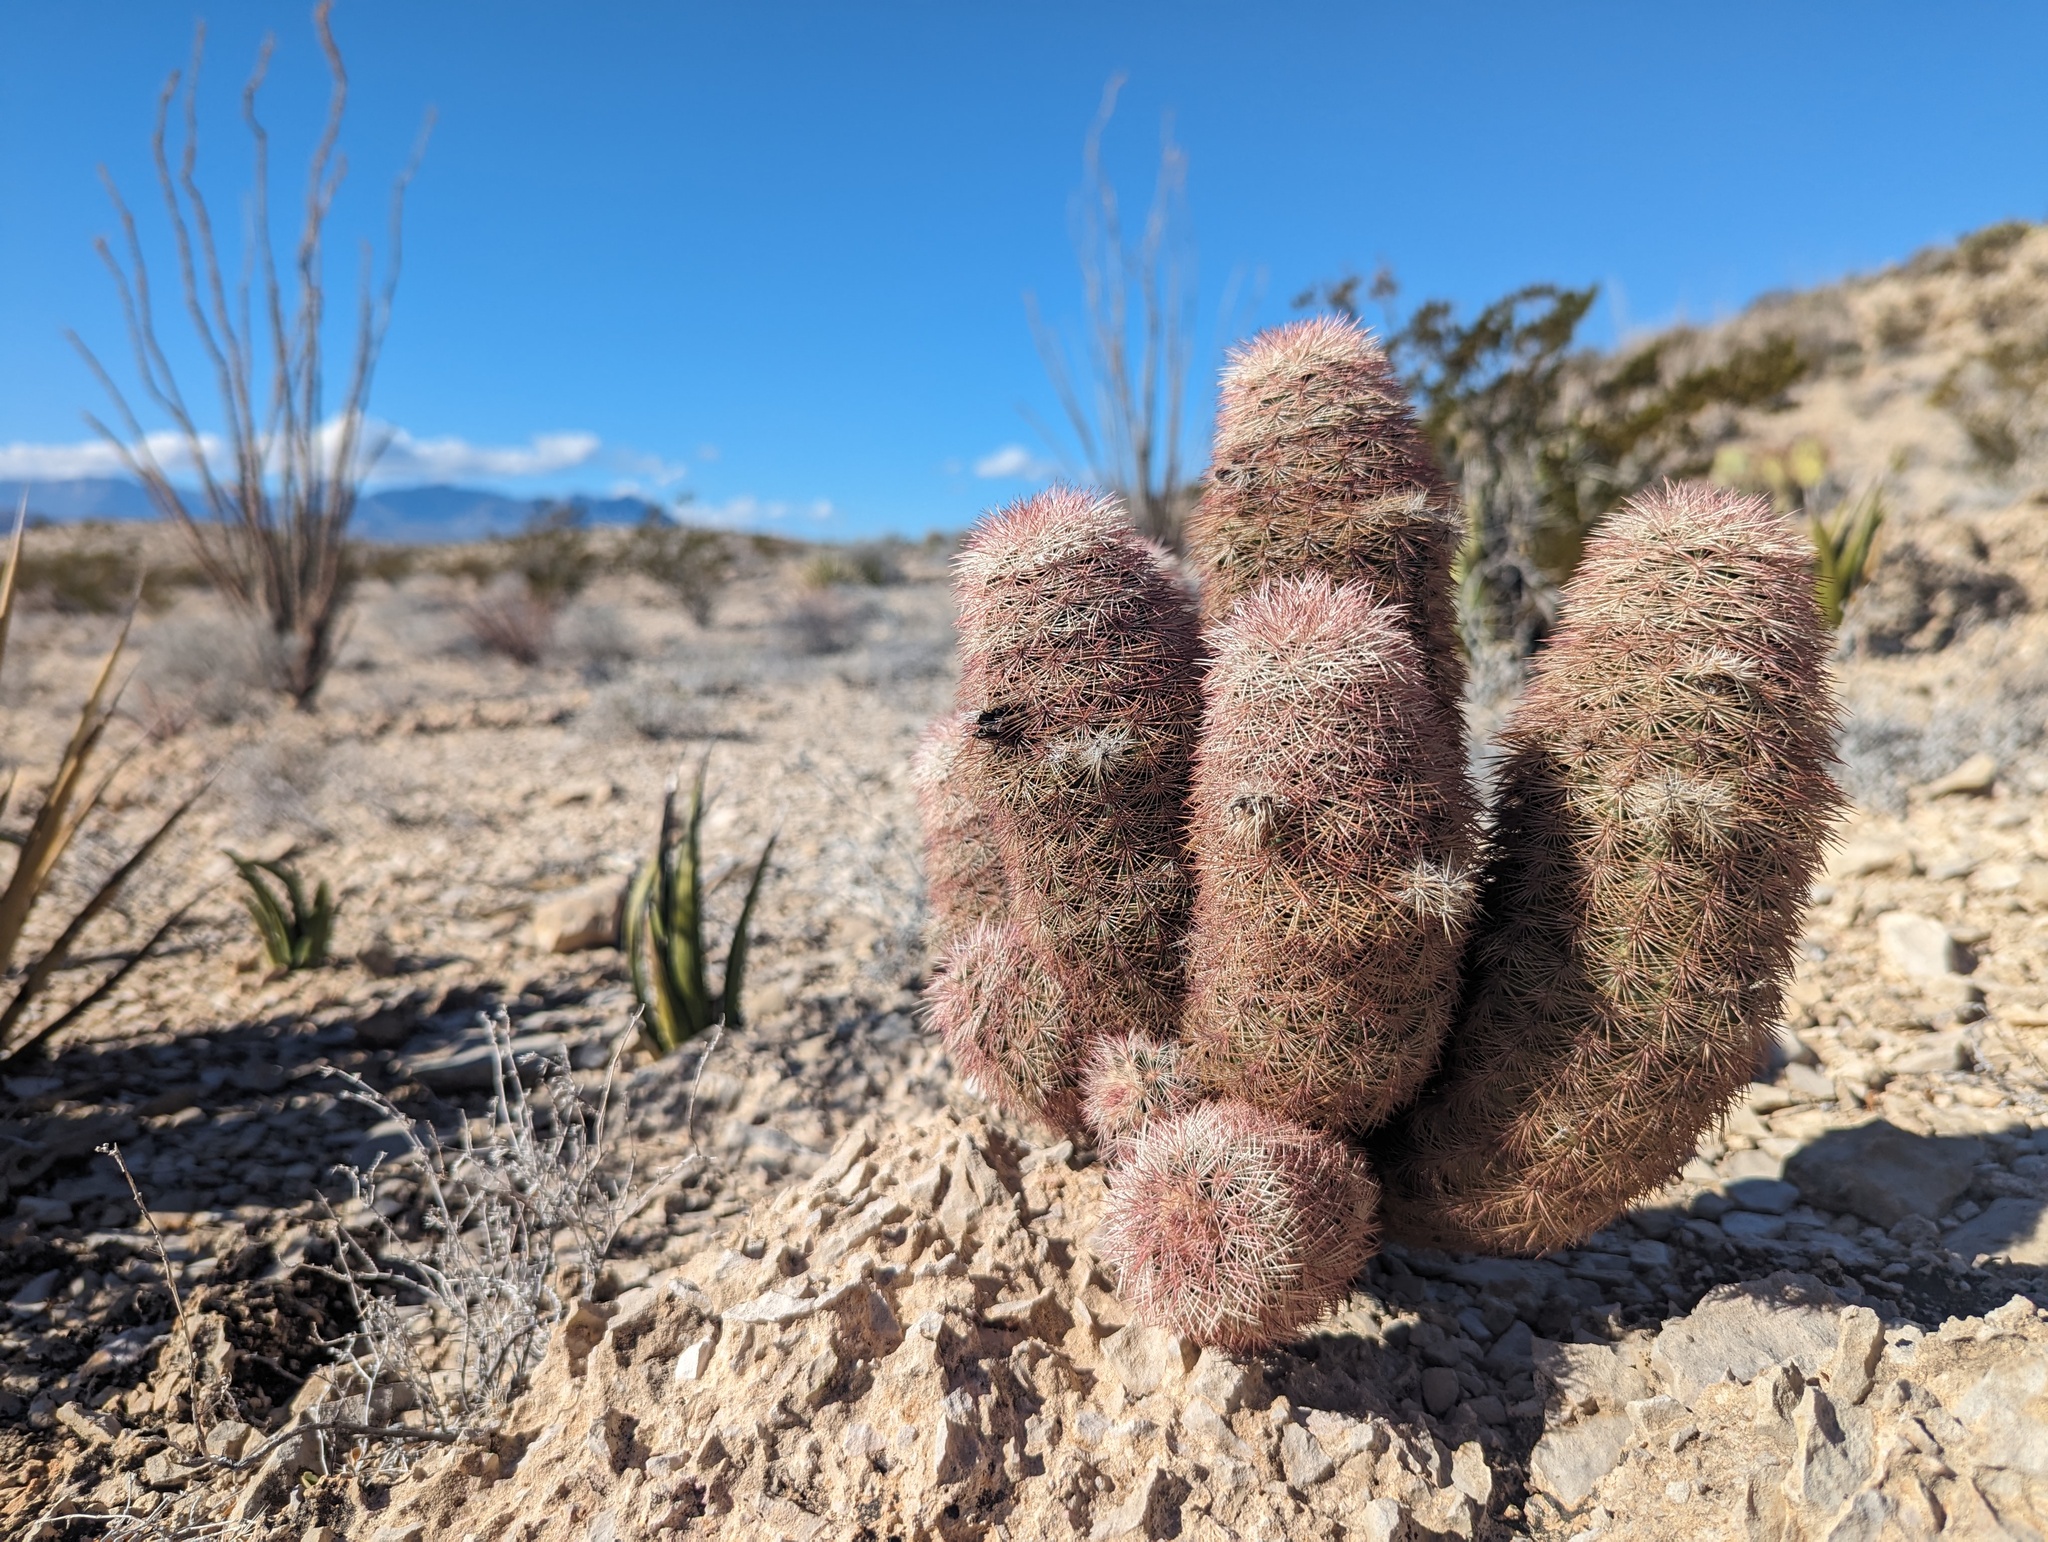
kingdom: Plantae
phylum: Tracheophyta
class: Magnoliopsida
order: Caryophyllales
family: Cactaceae
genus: Echinocereus
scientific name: Echinocereus dasyacanthus
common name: Spiny hedgehog cactus
